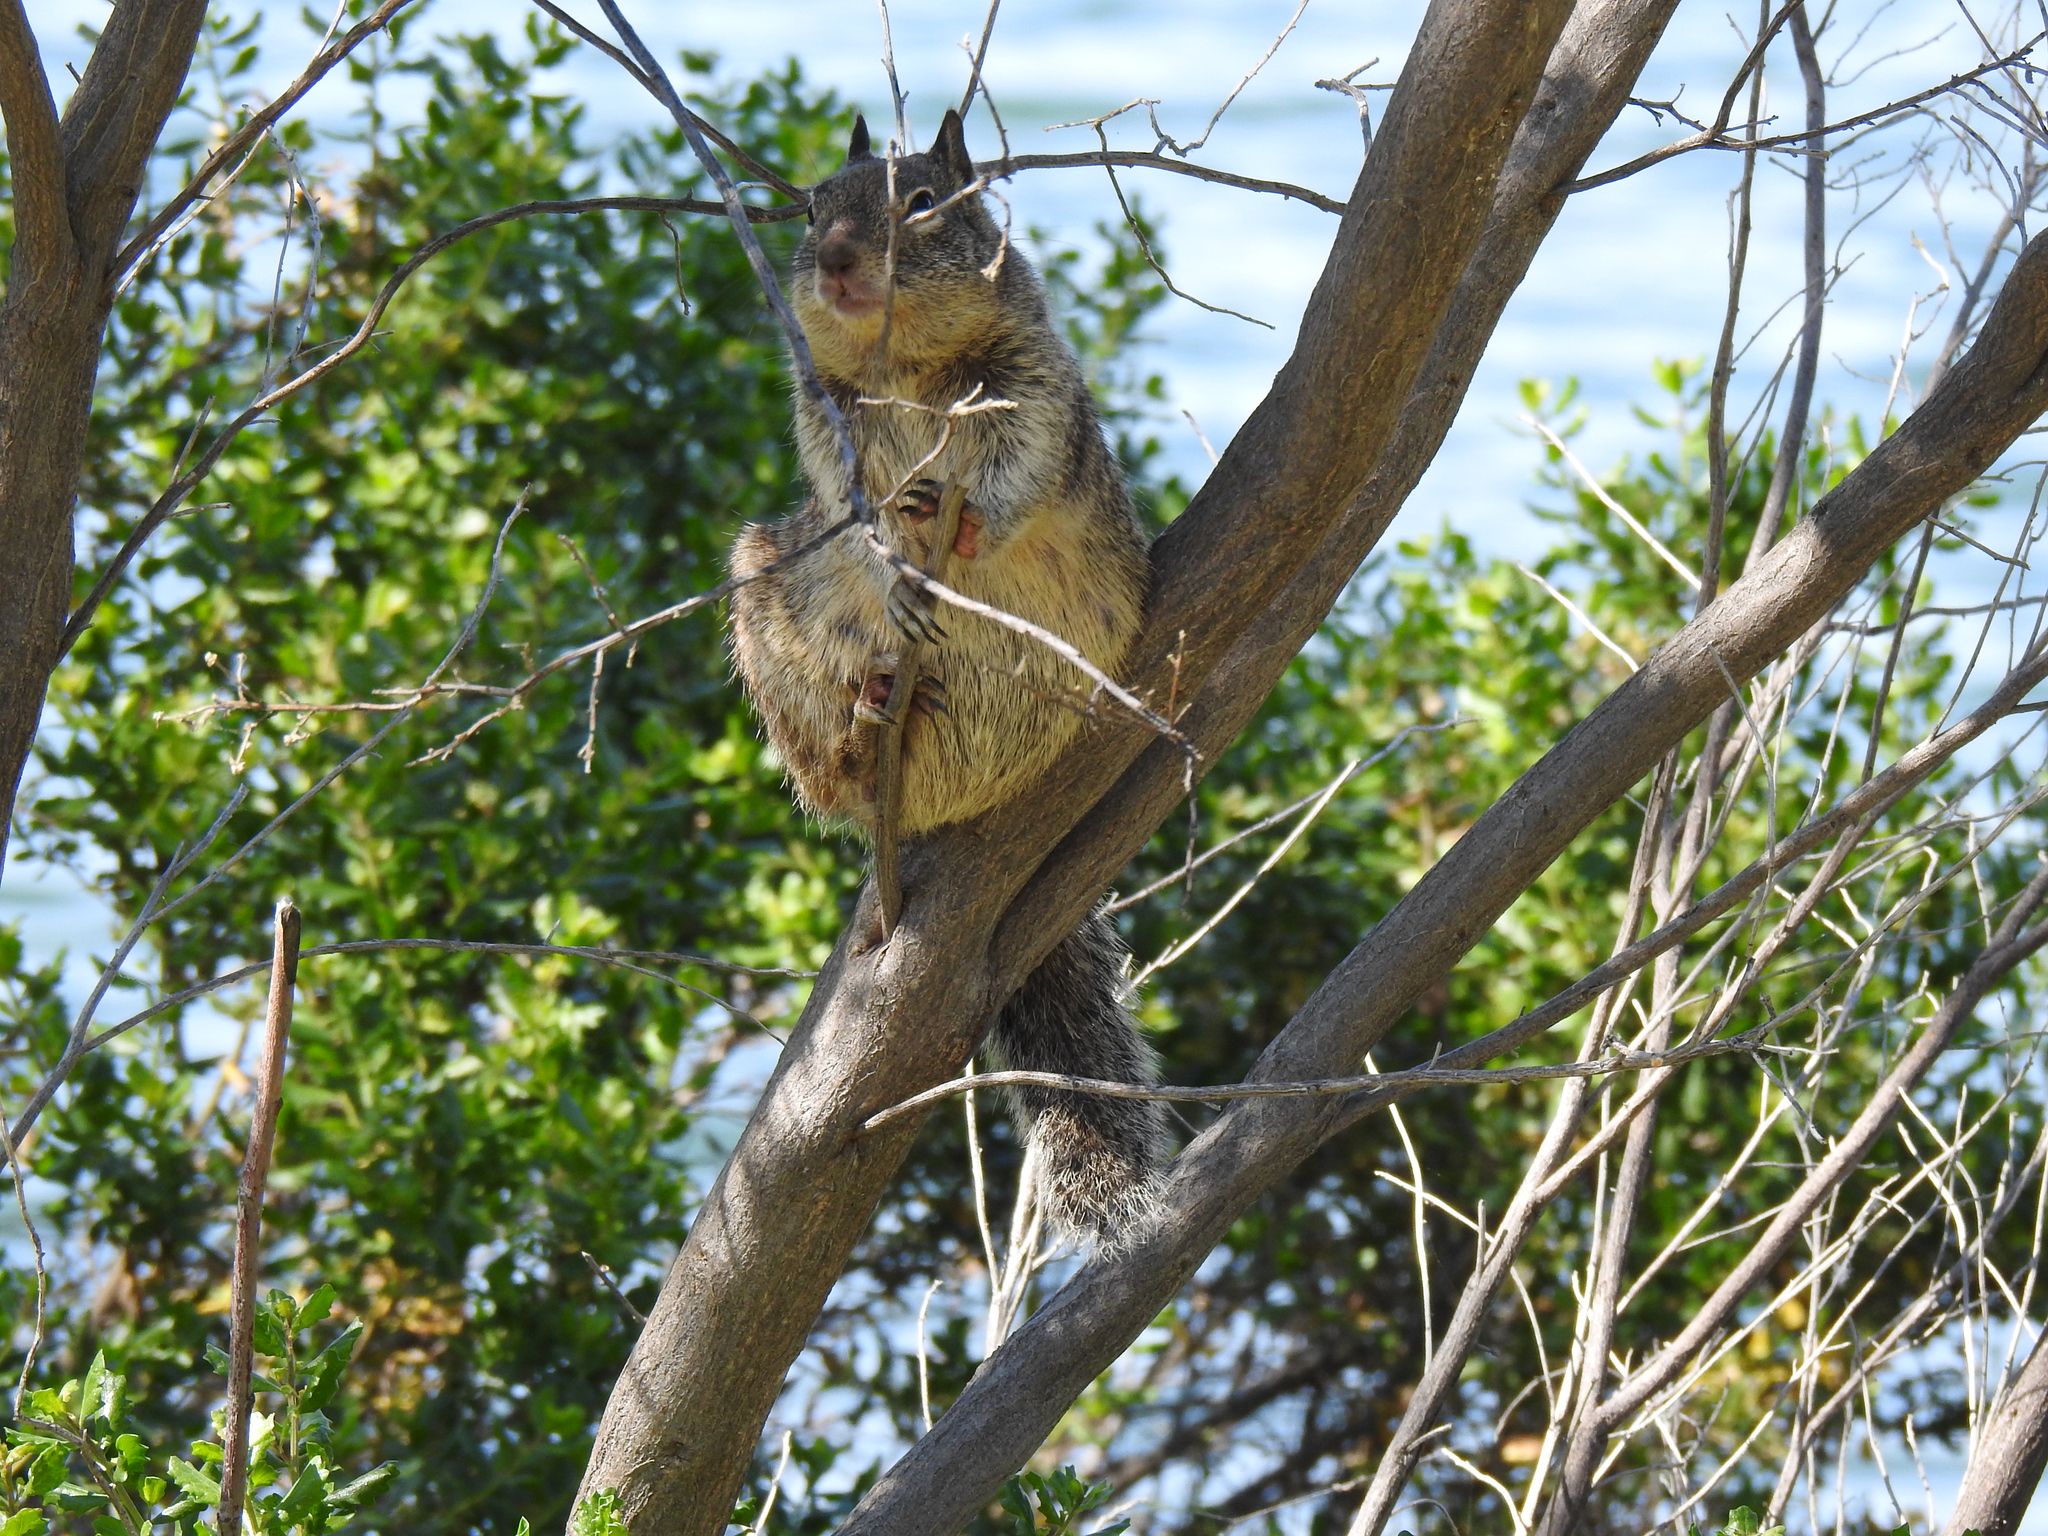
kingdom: Animalia
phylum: Chordata
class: Mammalia
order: Rodentia
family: Sciuridae
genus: Otospermophilus
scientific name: Otospermophilus beecheyi
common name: California ground squirrel
